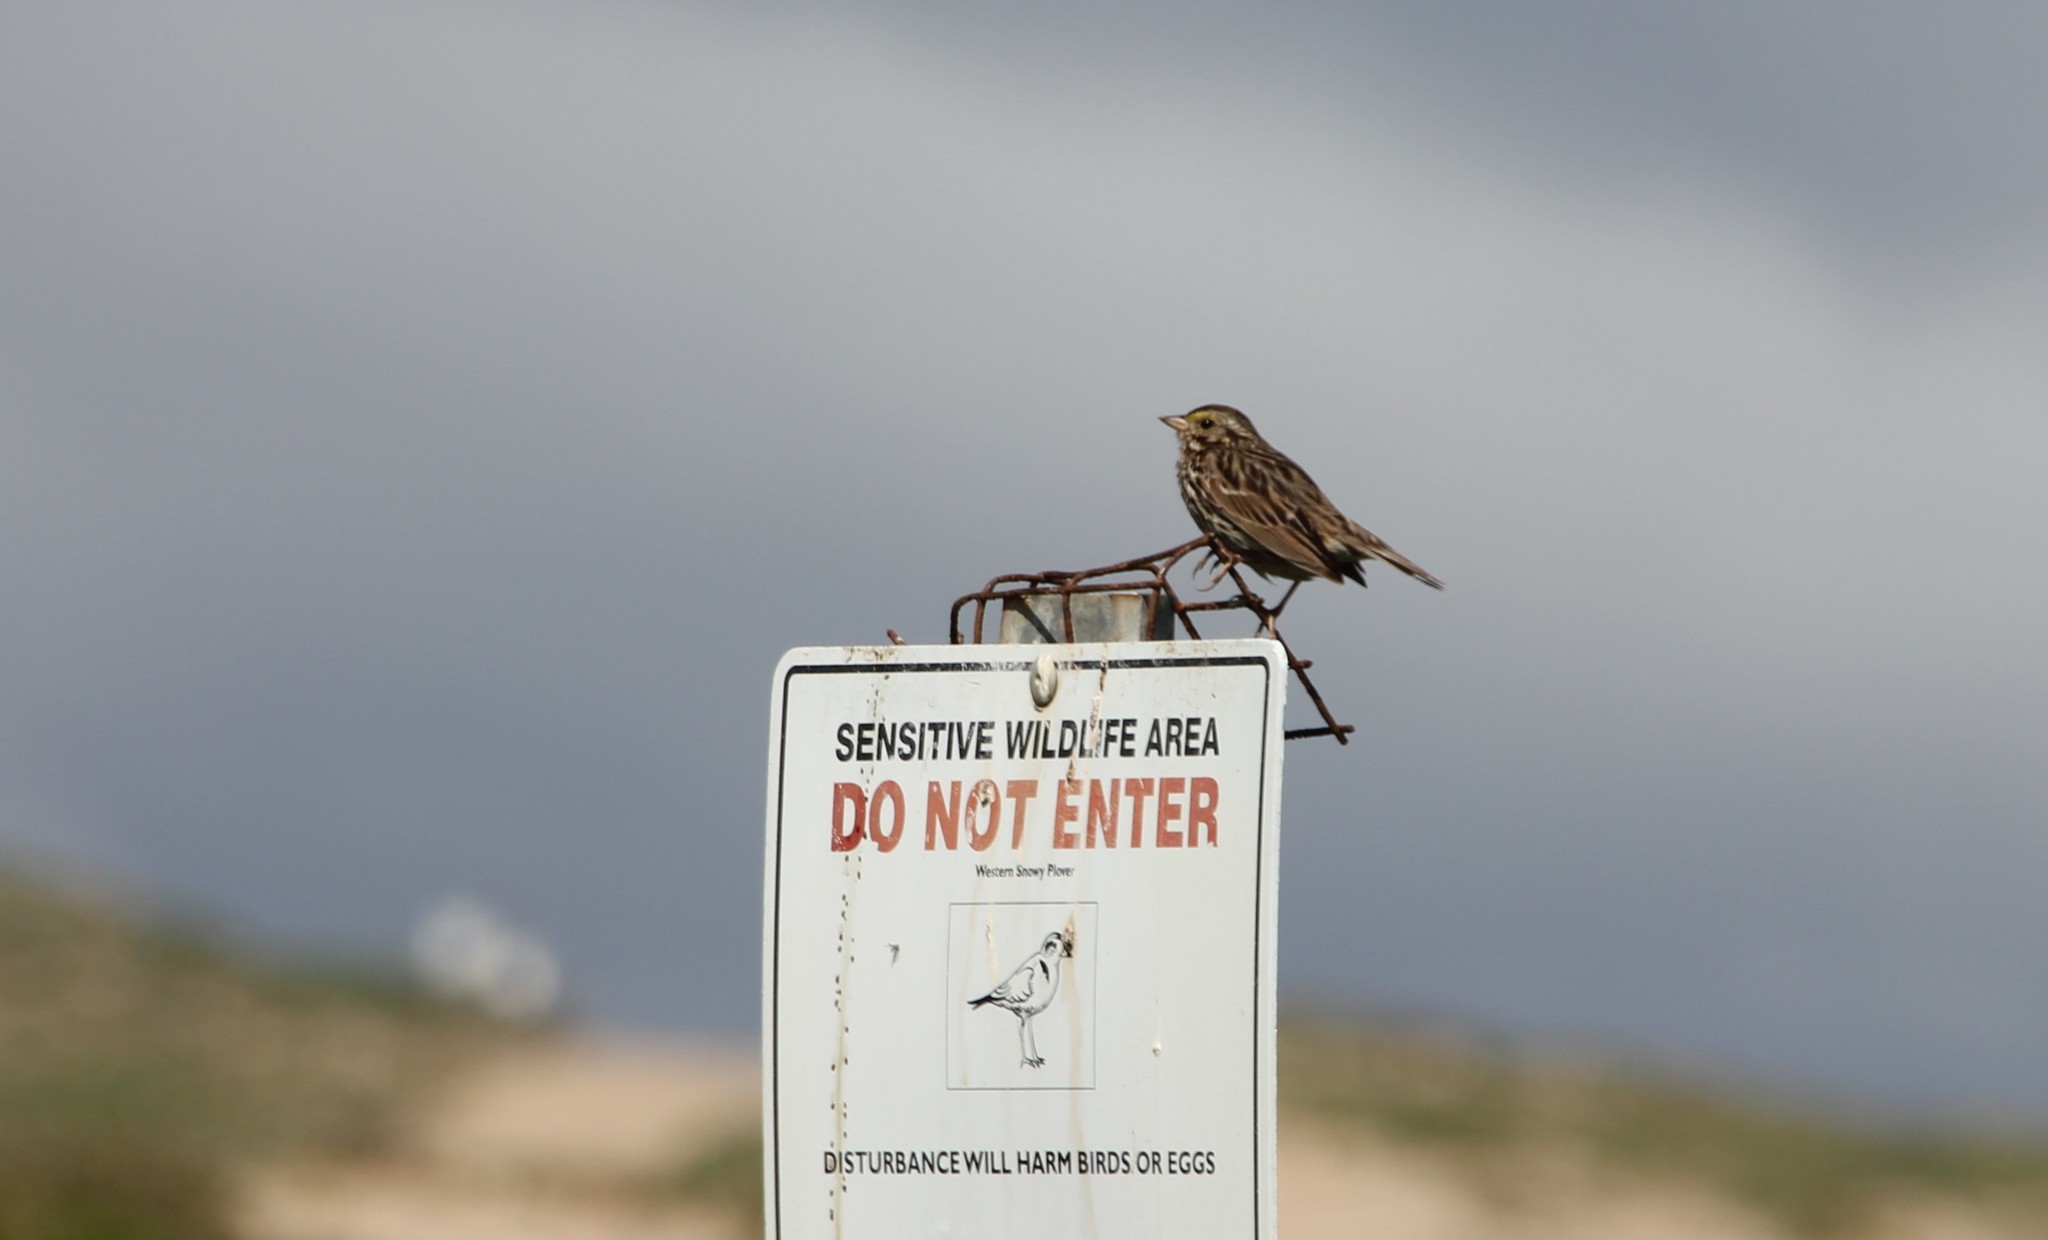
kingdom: Animalia
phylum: Chordata
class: Aves
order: Passeriformes
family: Passerellidae
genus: Passerculus
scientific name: Passerculus sandwichensis
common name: Savannah sparrow
